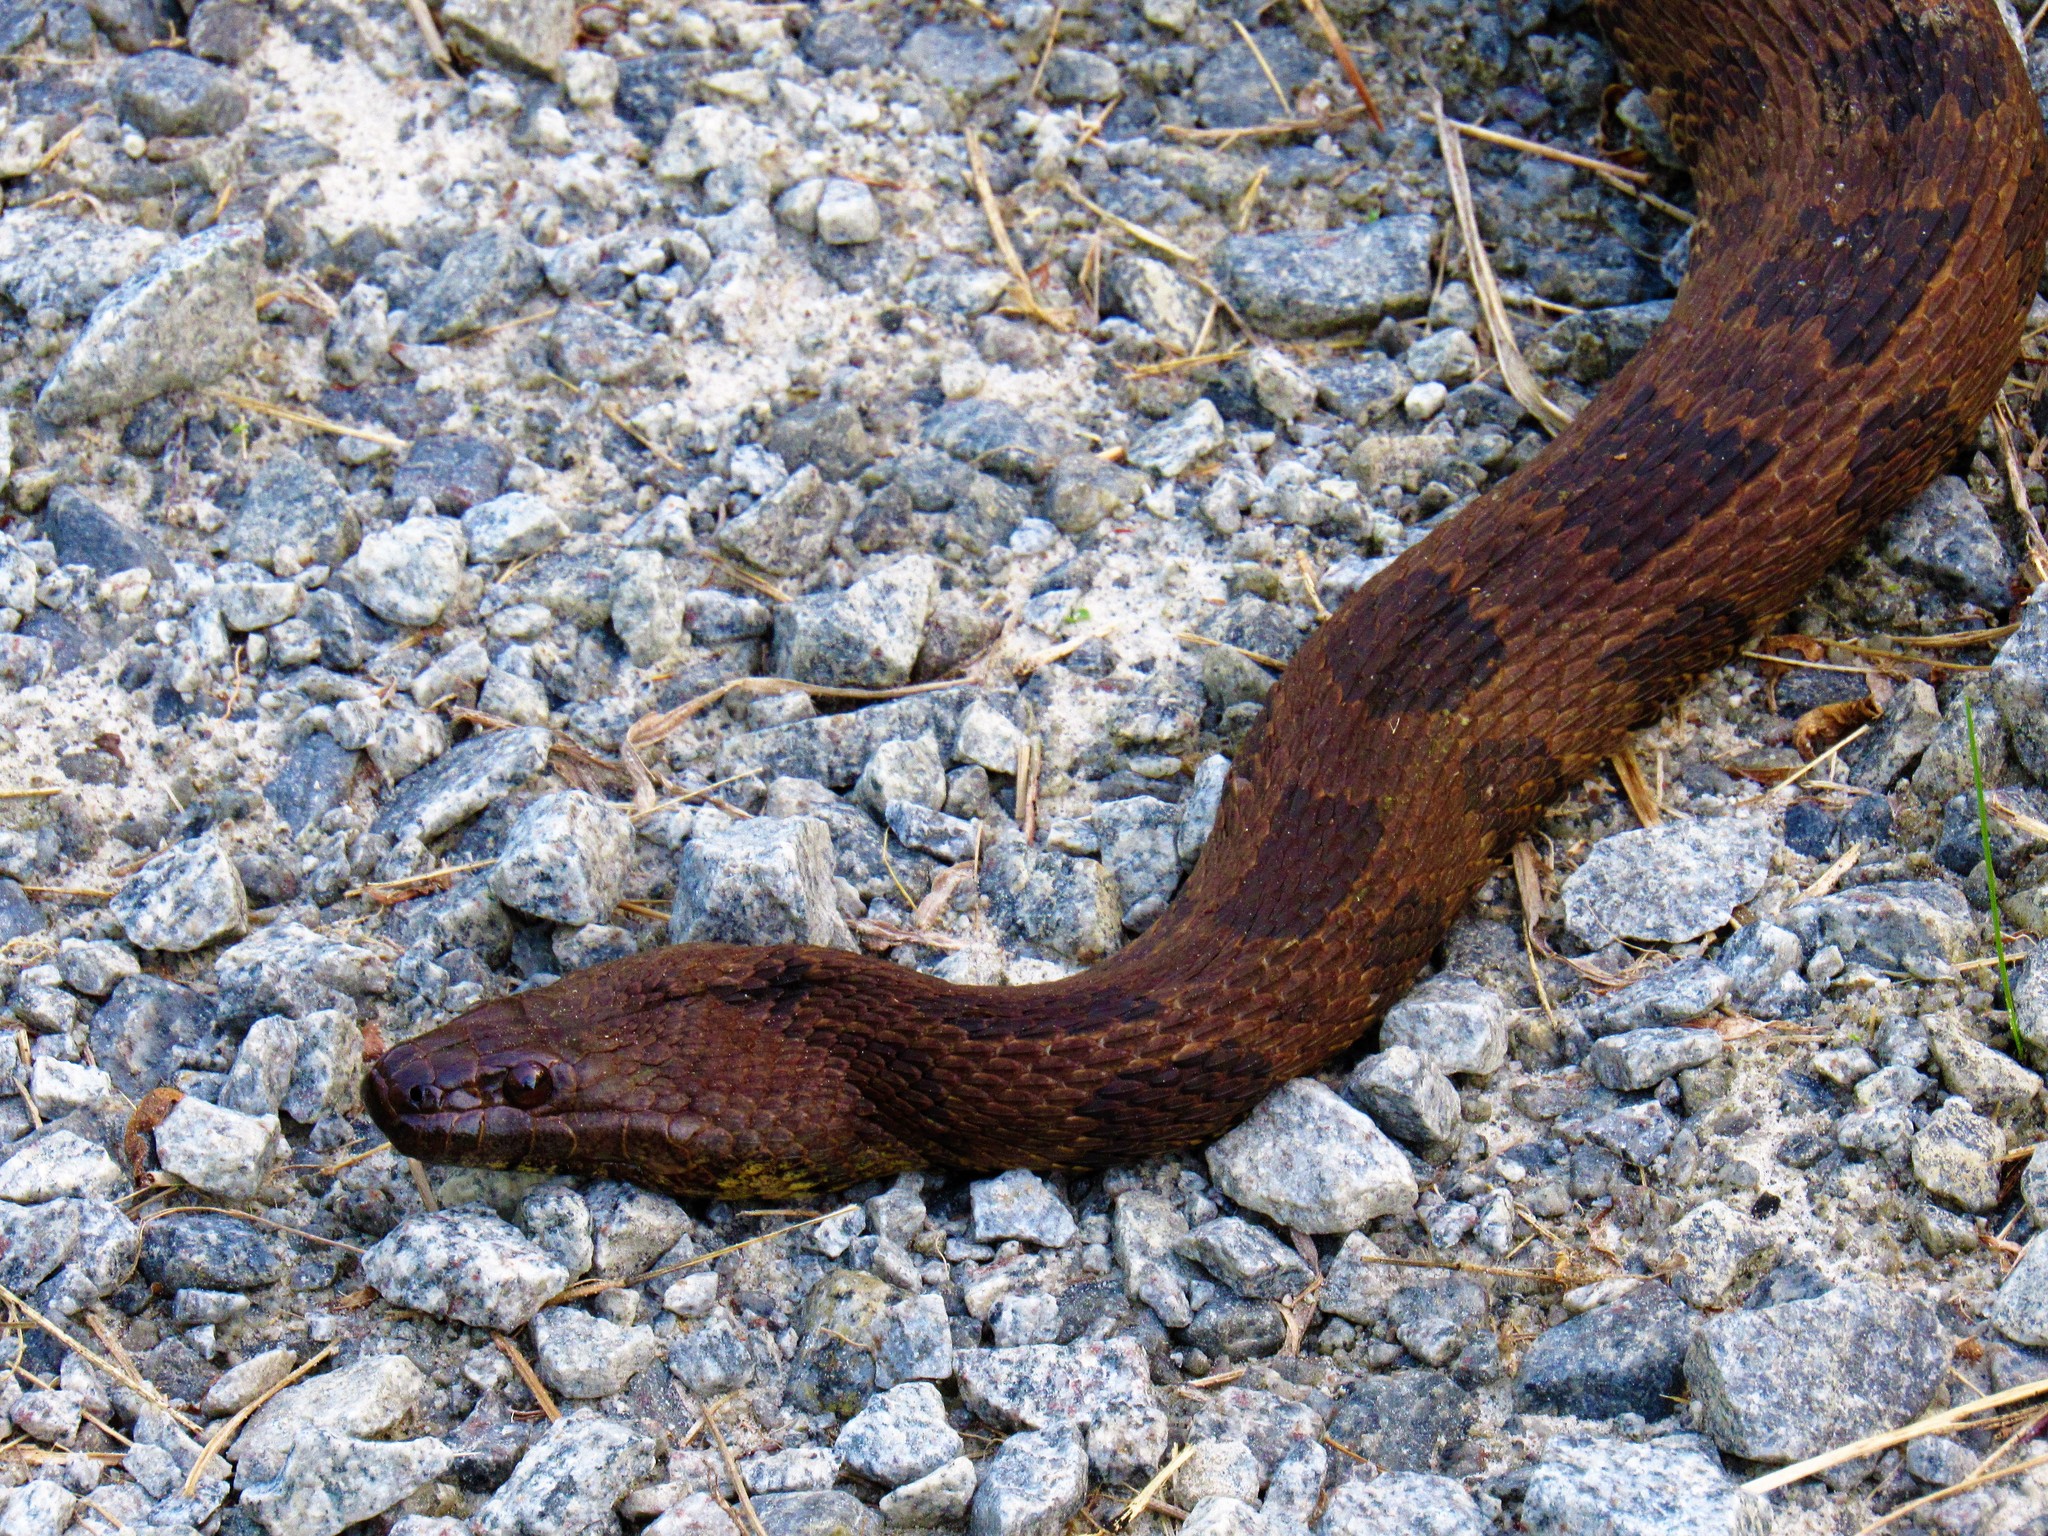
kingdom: Animalia
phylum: Chordata
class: Squamata
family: Colubridae
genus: Nerodia
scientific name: Nerodia taxispilota
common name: Brown water snake
